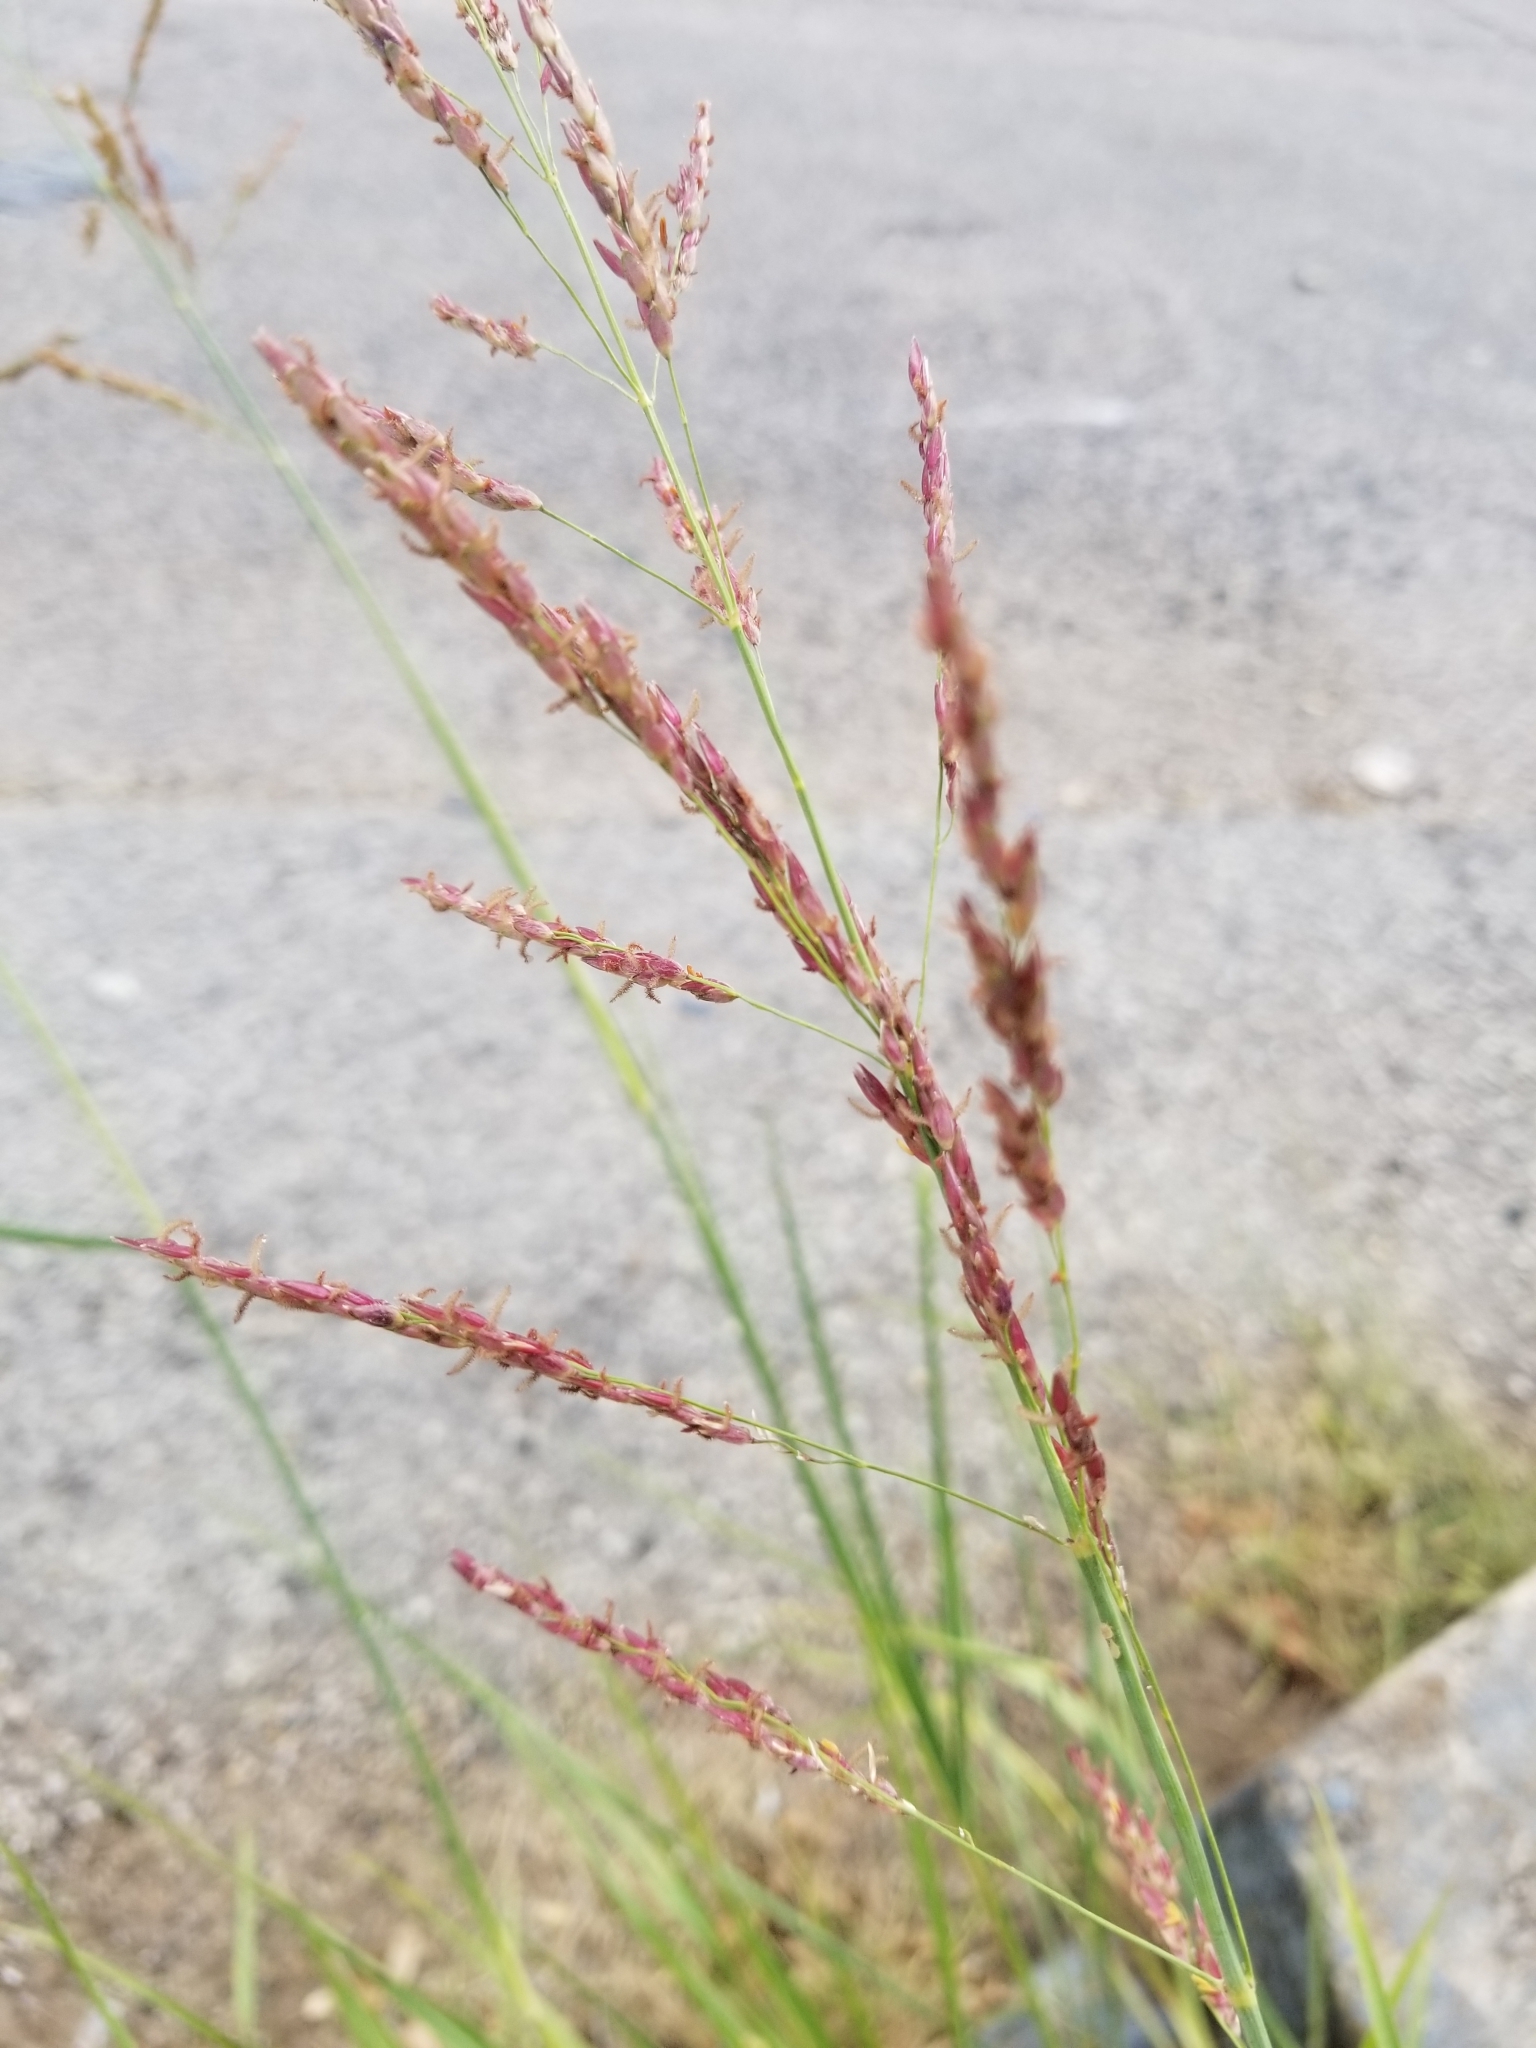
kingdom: Plantae
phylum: Tracheophyta
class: Liliopsida
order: Poales
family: Poaceae
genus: Sorghum
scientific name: Sorghum halepense
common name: Johnson-grass
